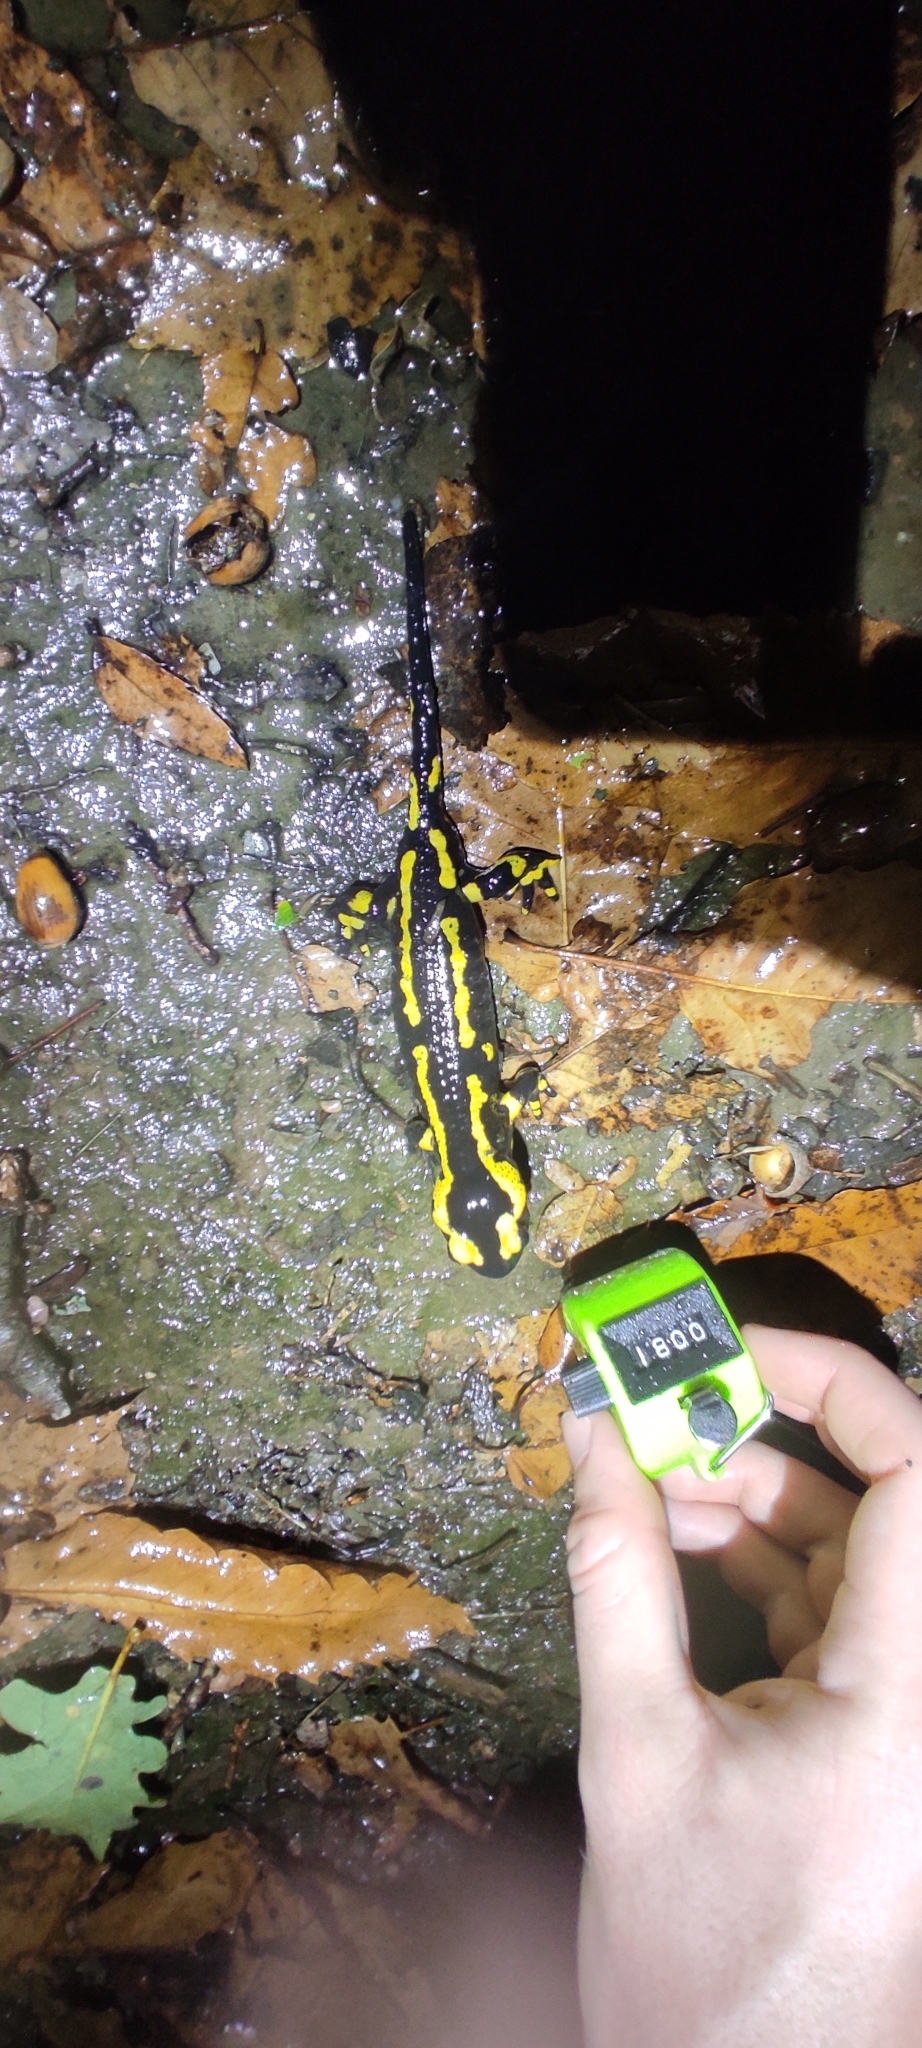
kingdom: Animalia
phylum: Chordata
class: Amphibia
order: Caudata
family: Salamandridae
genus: Salamandra
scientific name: Salamandra salamandra
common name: Fire salamander
